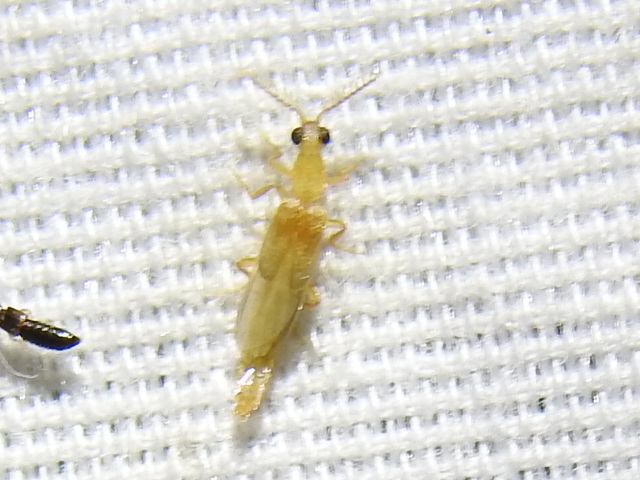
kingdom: Animalia
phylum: Arthropoda
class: Insecta
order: Coleoptera
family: Phengodidae
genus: Cenophengus
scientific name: Cenophengus pallidus
